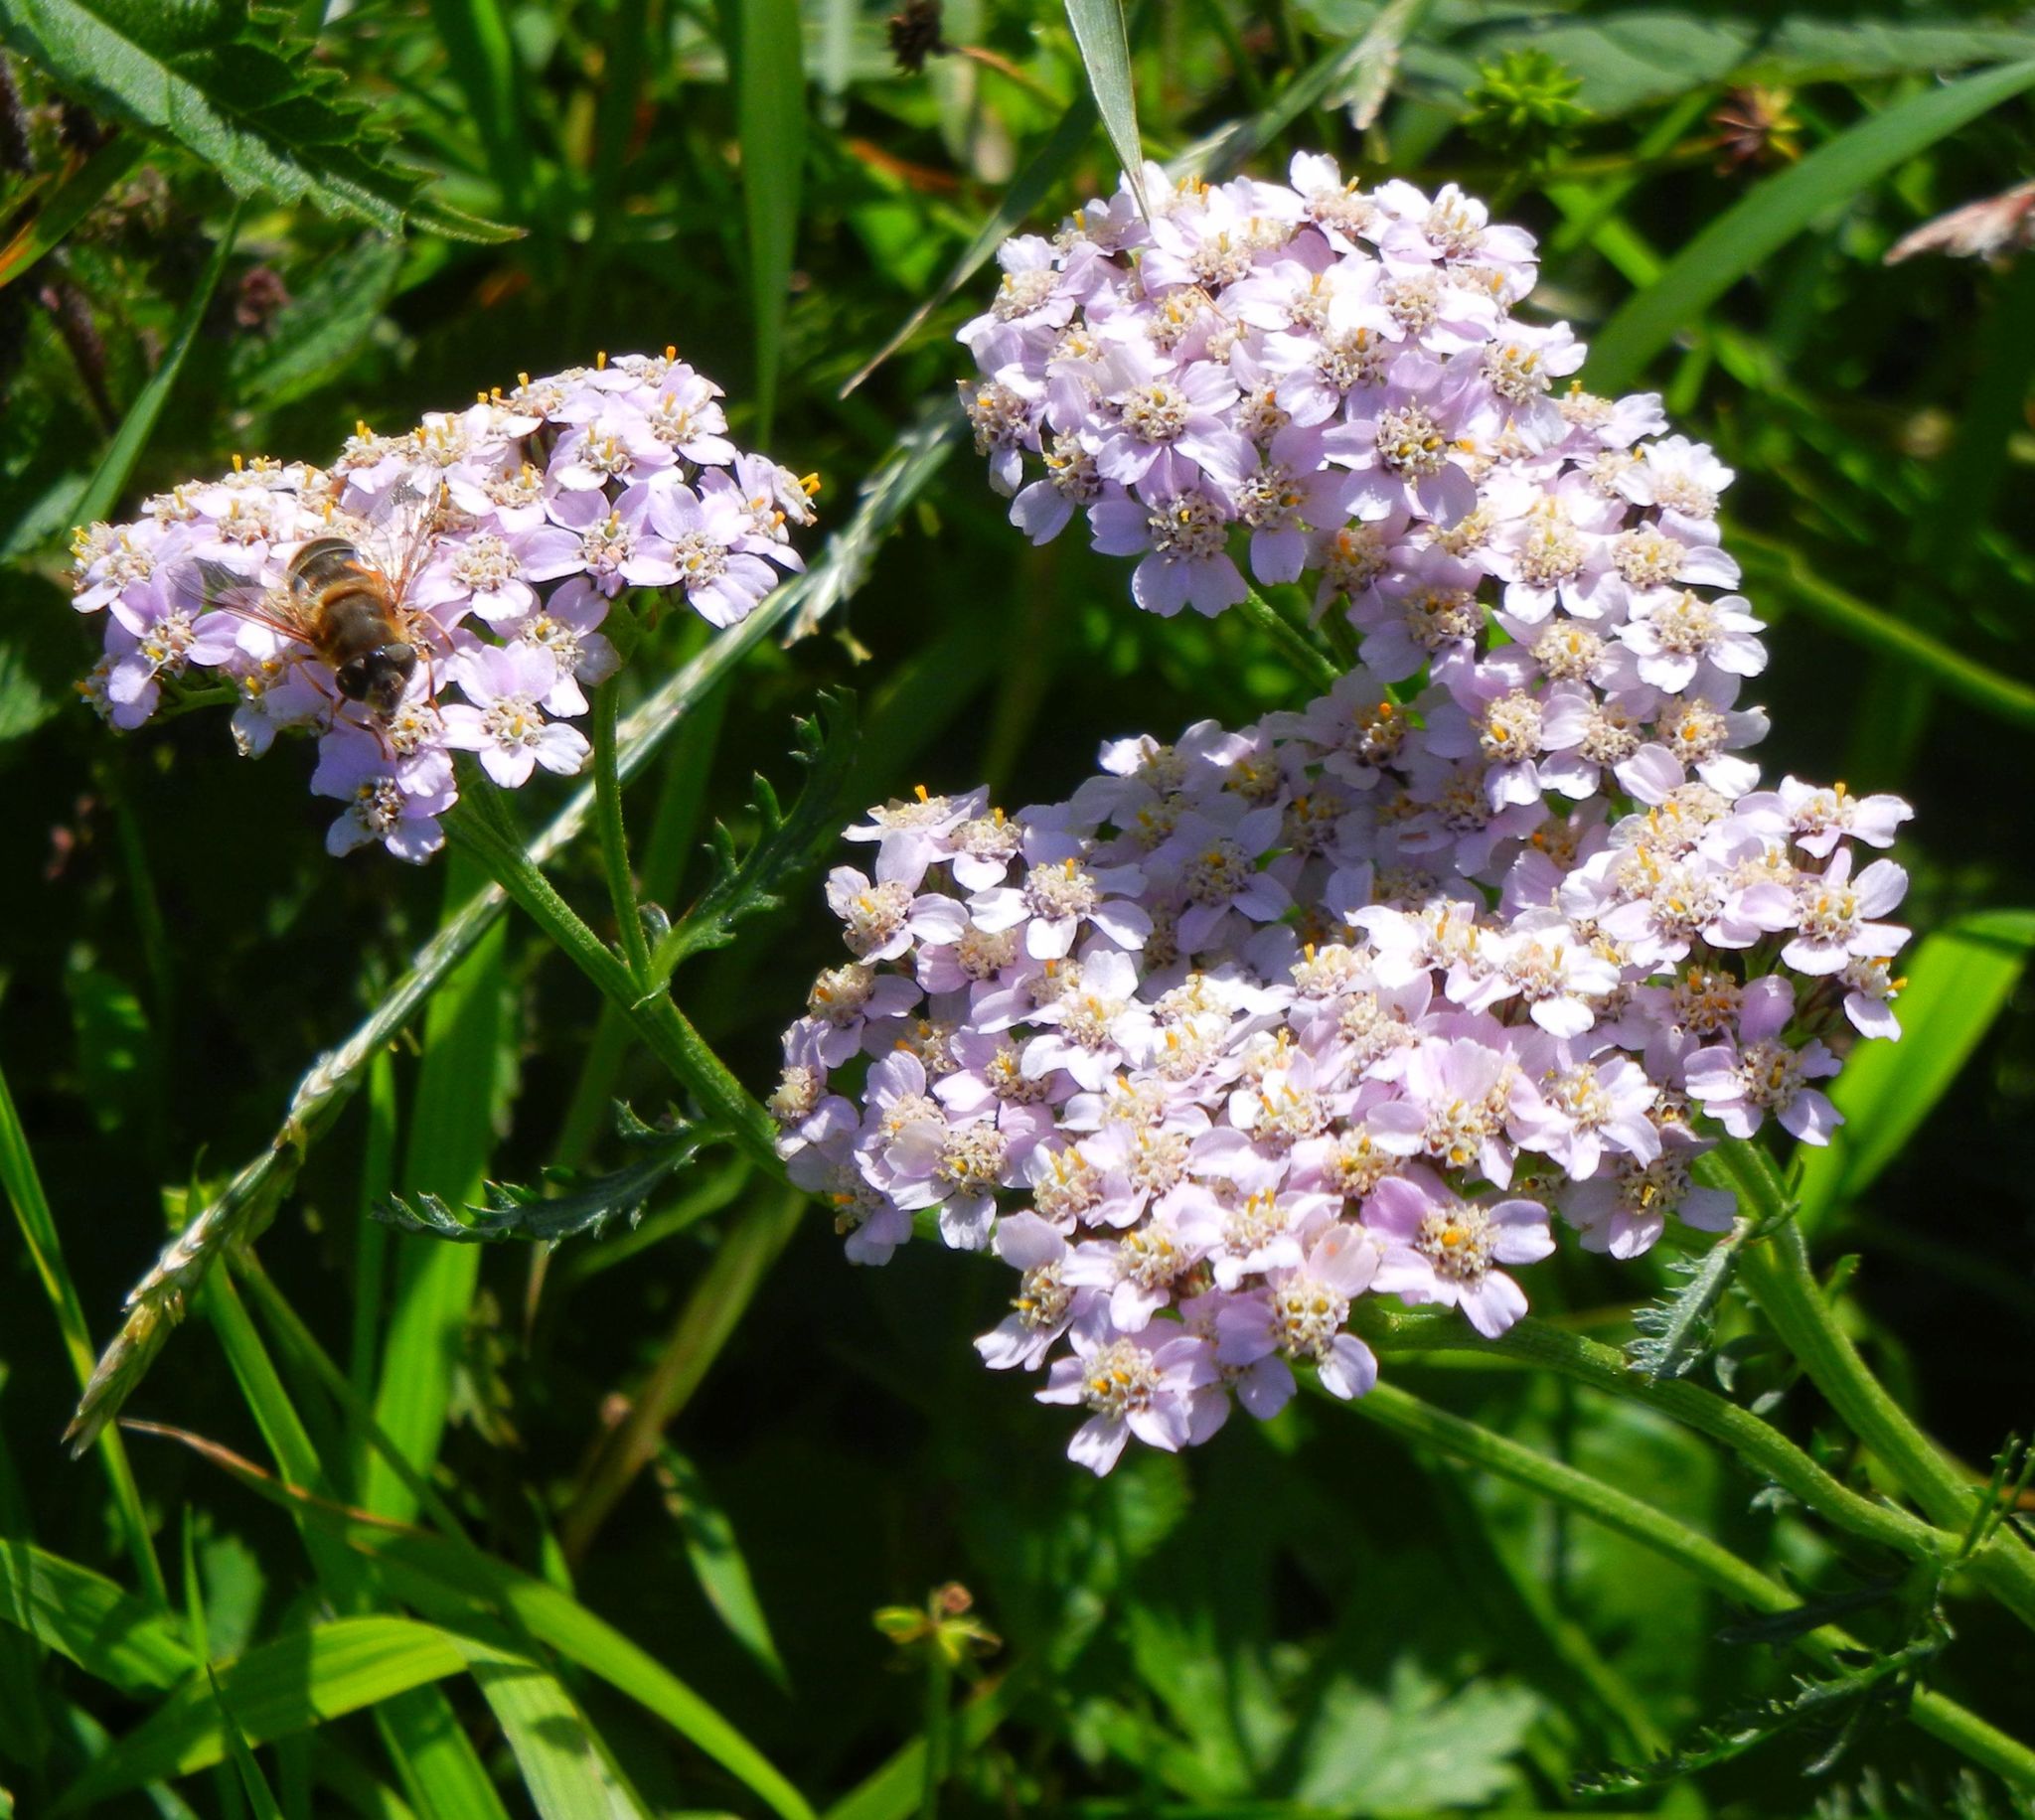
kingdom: Plantae
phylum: Tracheophyta
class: Magnoliopsida
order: Asterales
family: Asteraceae
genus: Achillea
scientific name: Achillea millefolium
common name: Yarrow
